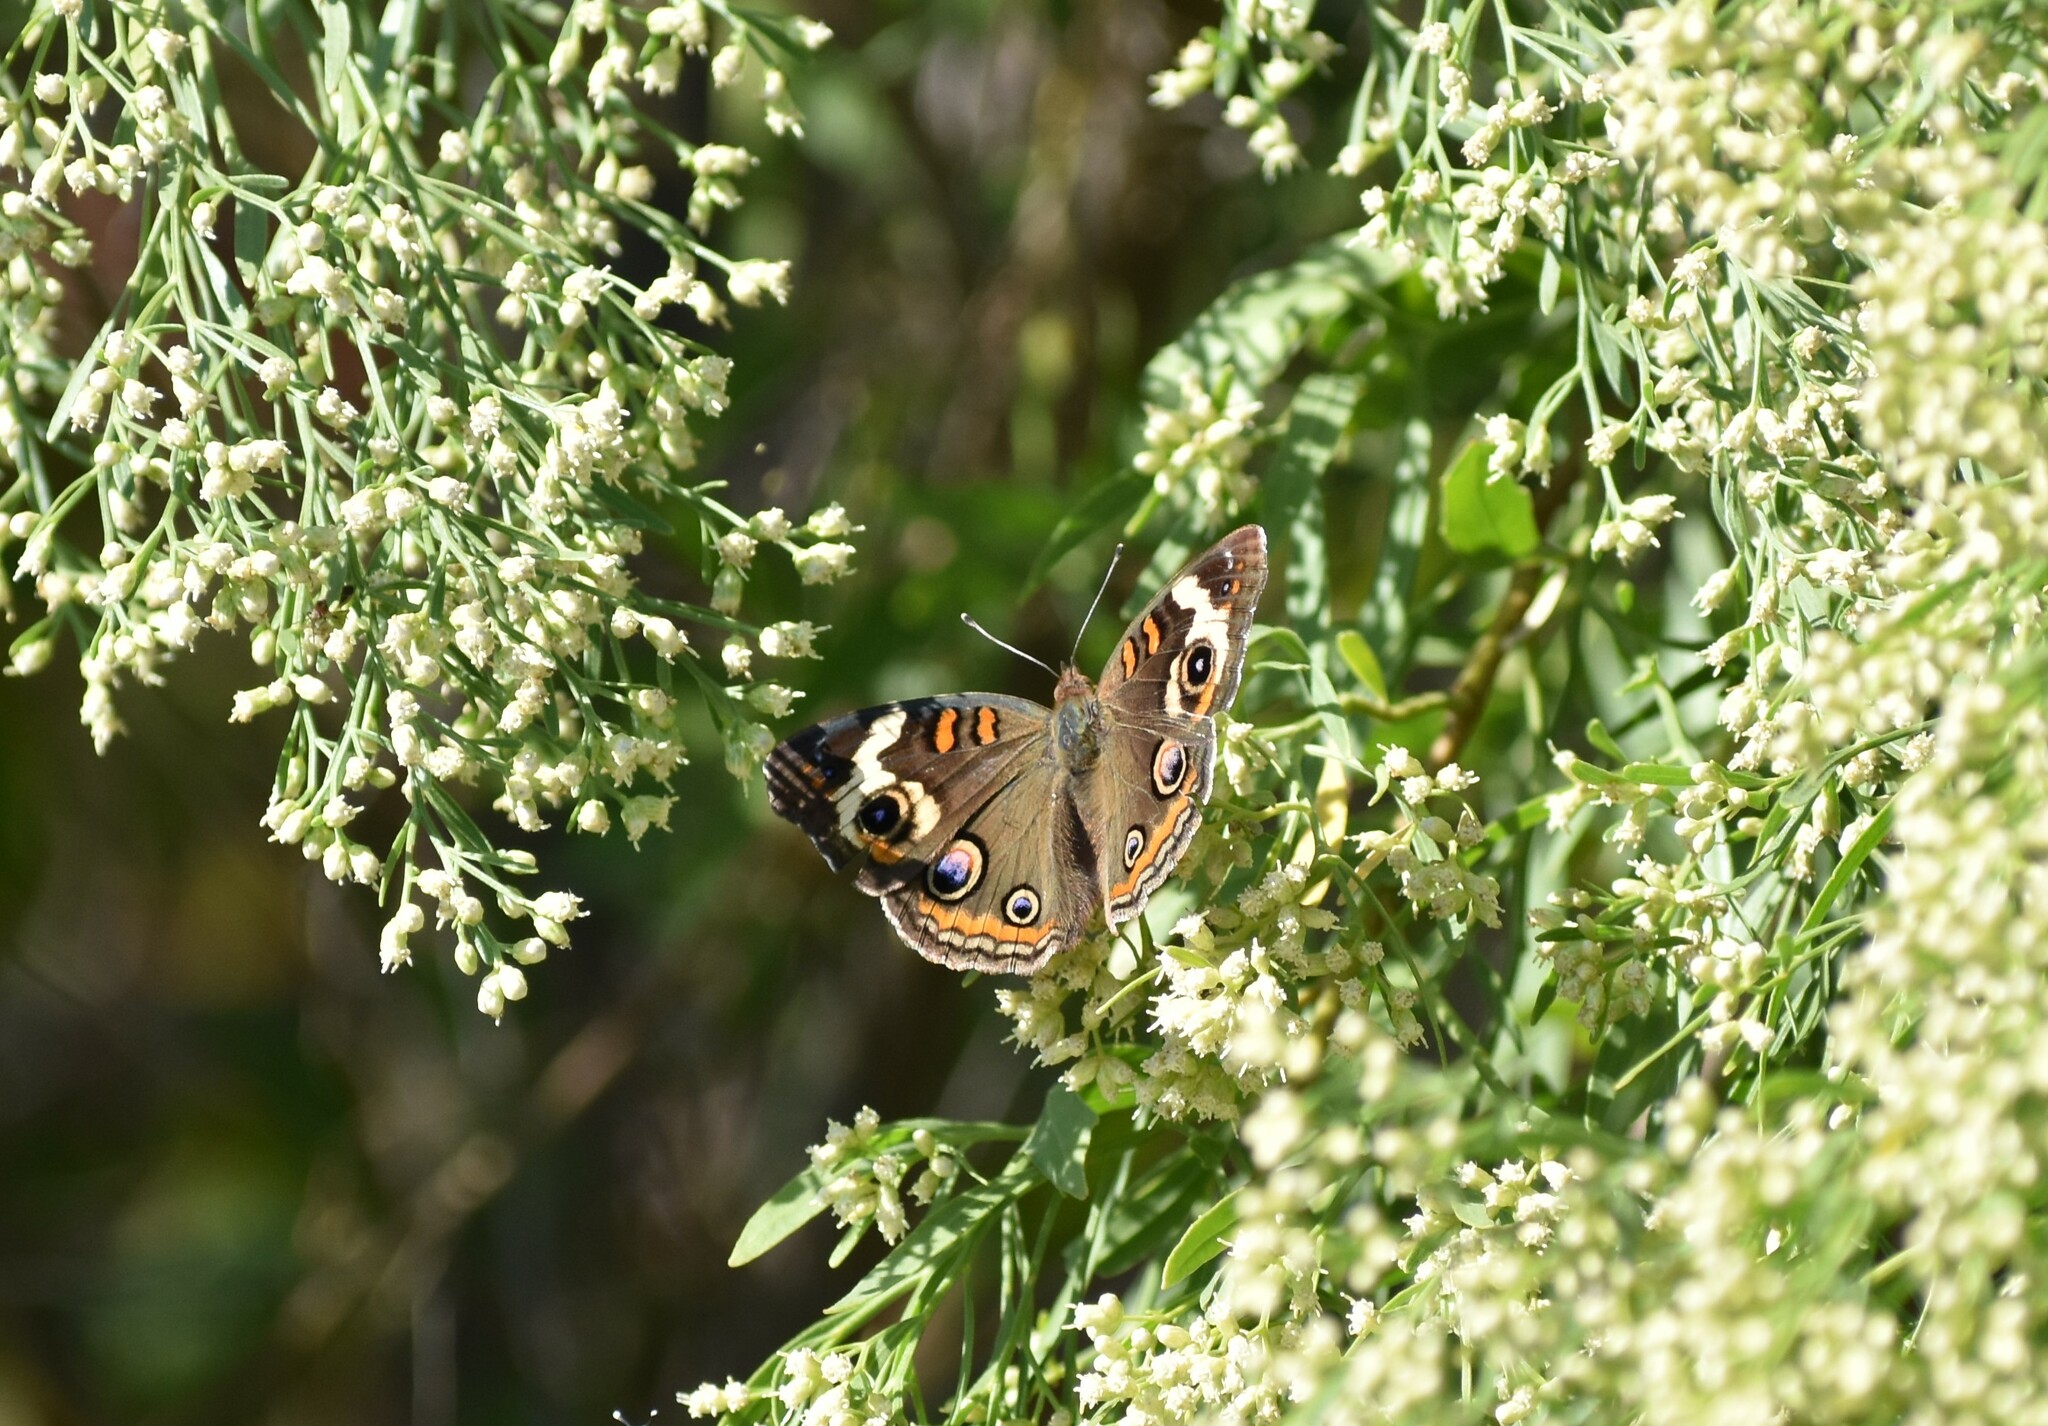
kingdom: Animalia
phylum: Arthropoda
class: Insecta
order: Lepidoptera
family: Nymphalidae
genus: Junonia
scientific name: Junonia coenia
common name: Common buckeye
